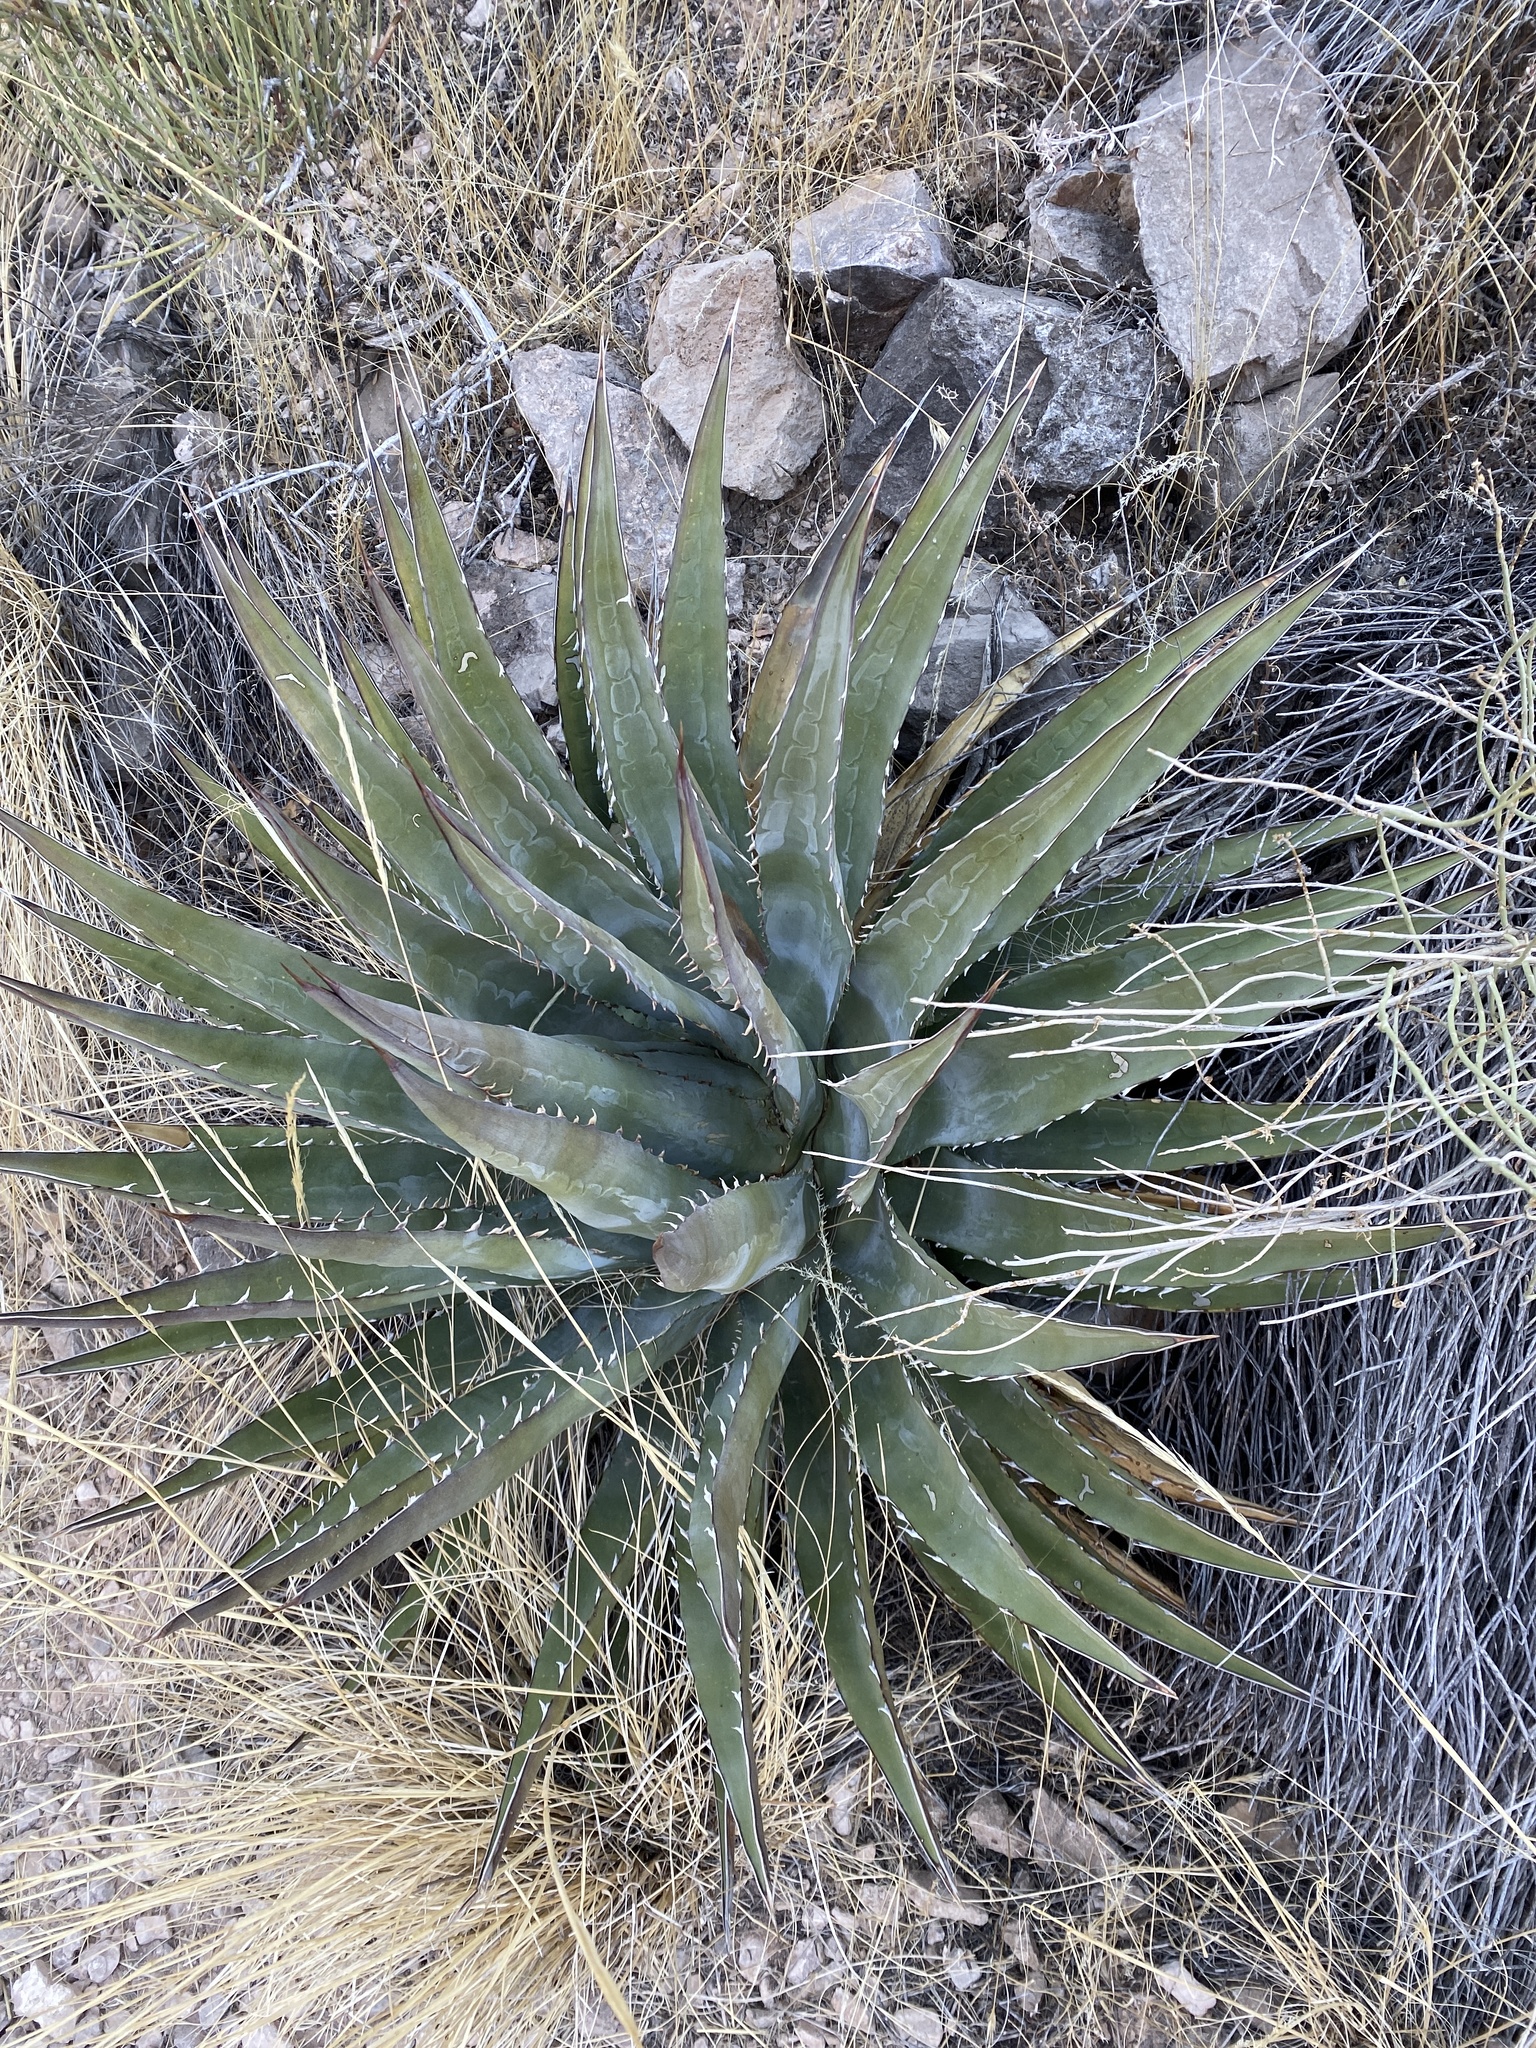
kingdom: Plantae
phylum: Tracheophyta
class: Liliopsida
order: Asparagales
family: Asparagaceae
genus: Agave
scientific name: Agave utahensis
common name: Utah agave
